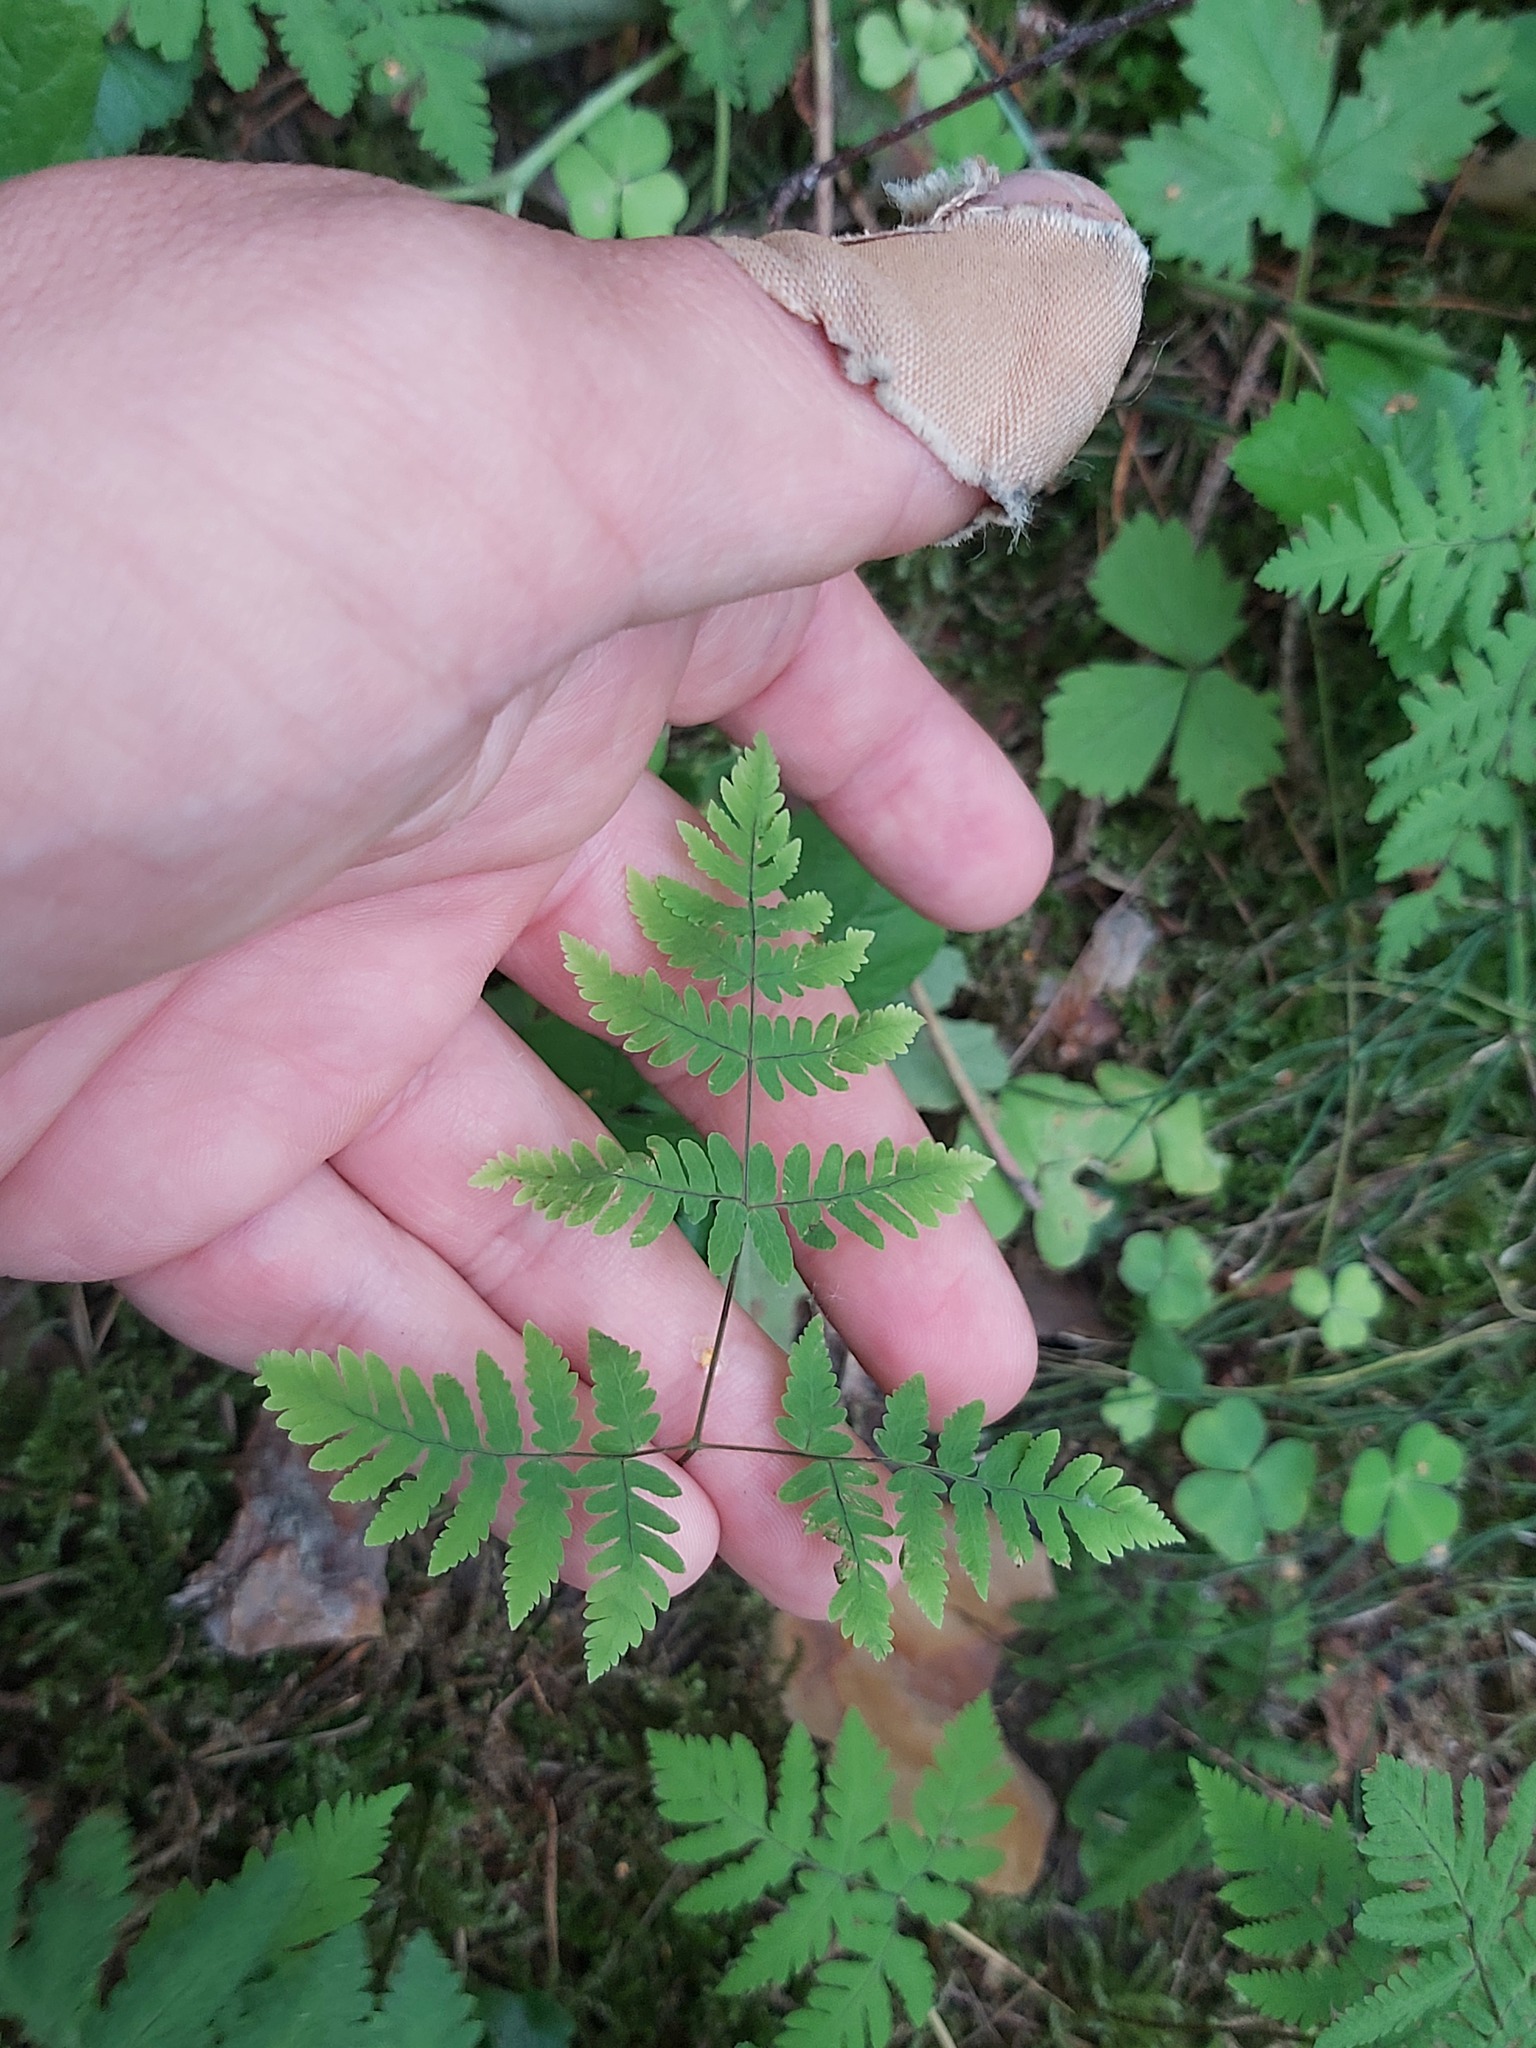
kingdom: Plantae
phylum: Tracheophyta
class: Polypodiopsida
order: Polypodiales
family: Cystopteridaceae
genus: Gymnocarpium
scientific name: Gymnocarpium dryopteris
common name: Oak fern
